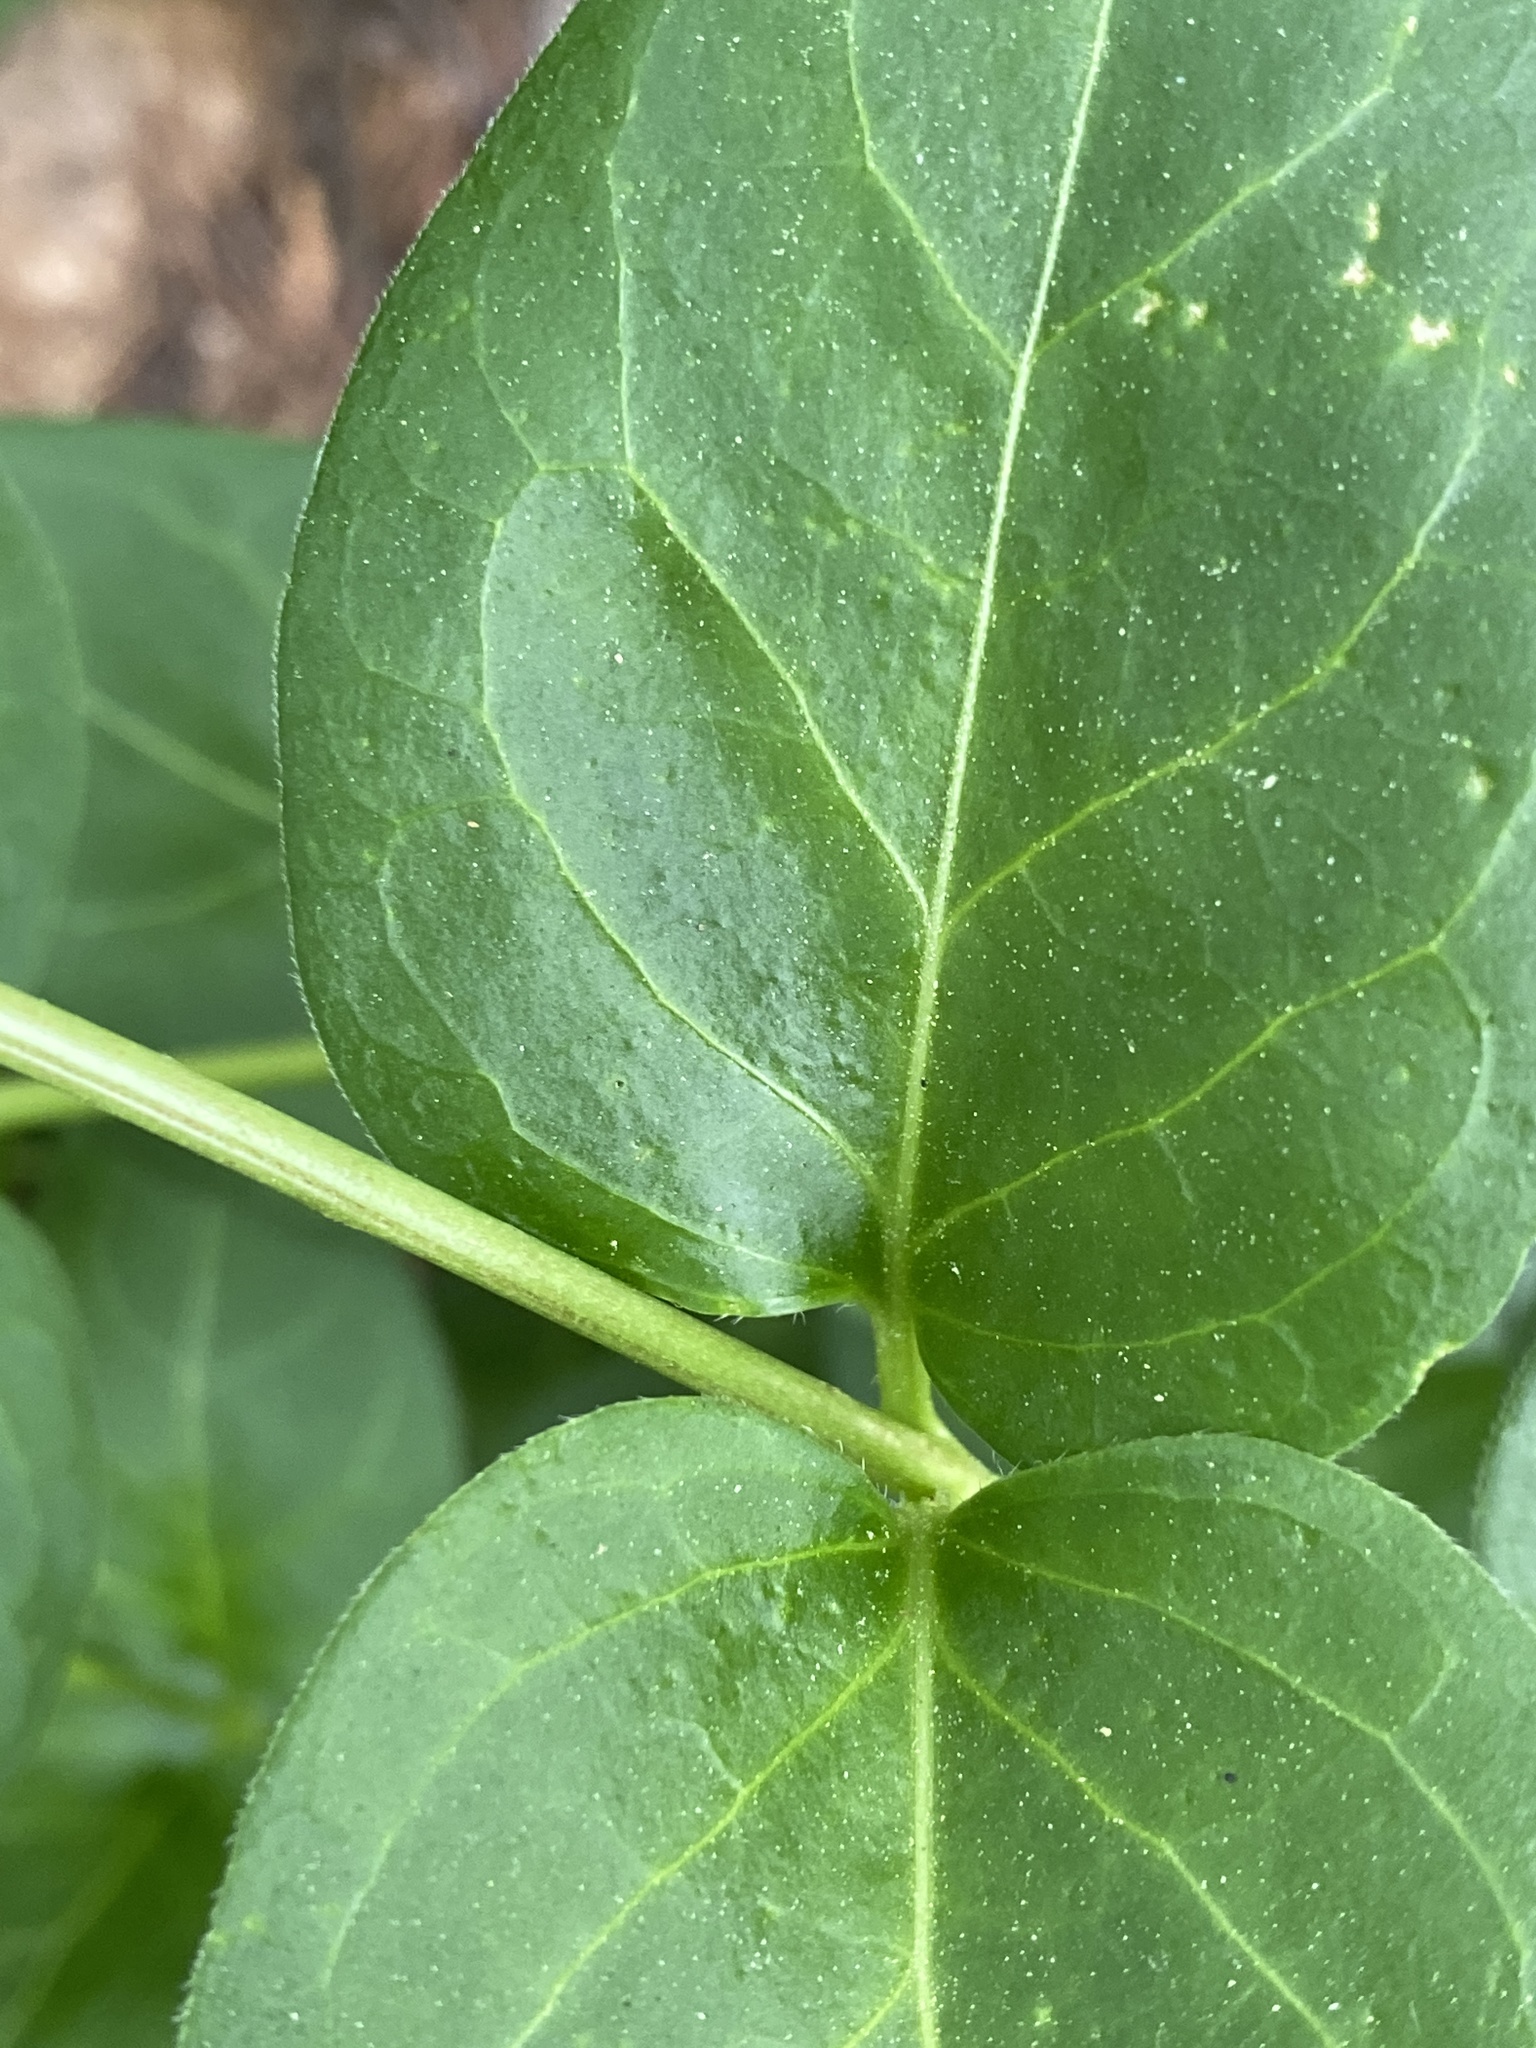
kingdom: Plantae
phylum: Tracheophyta
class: Magnoliopsida
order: Gentianales
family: Apocynaceae
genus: Vinca
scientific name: Vinca major
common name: Greater periwinkle
